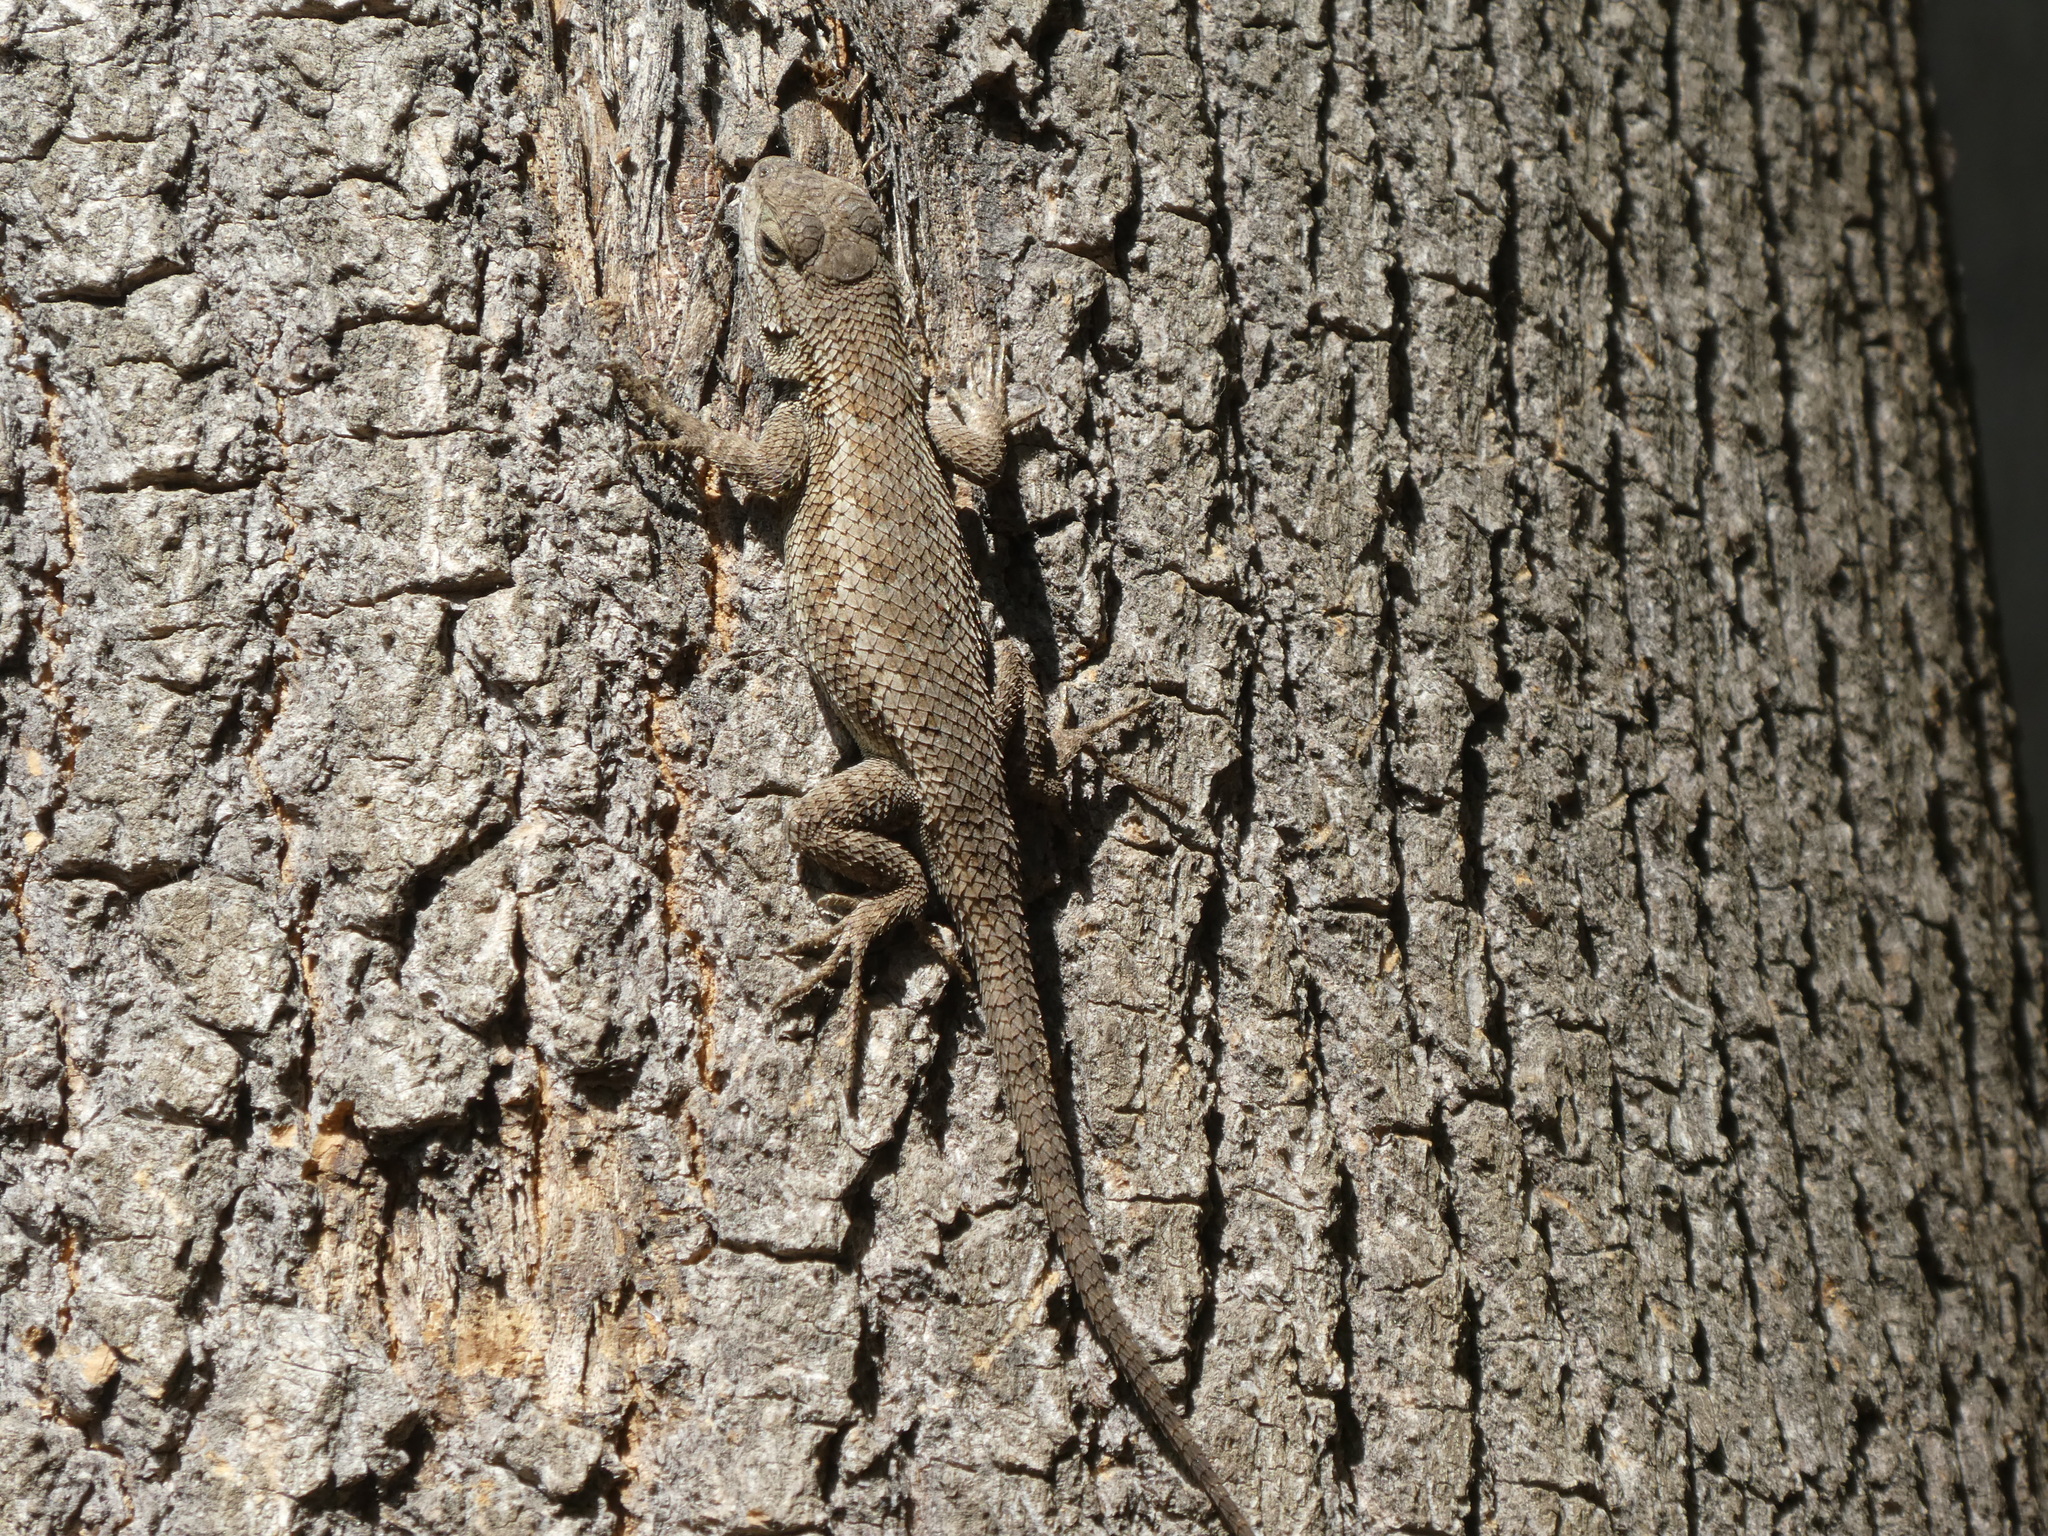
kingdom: Animalia
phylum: Chordata
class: Squamata
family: Phrynosomatidae
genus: Sceloporus
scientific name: Sceloporus occidentalis
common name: Western fence lizard
